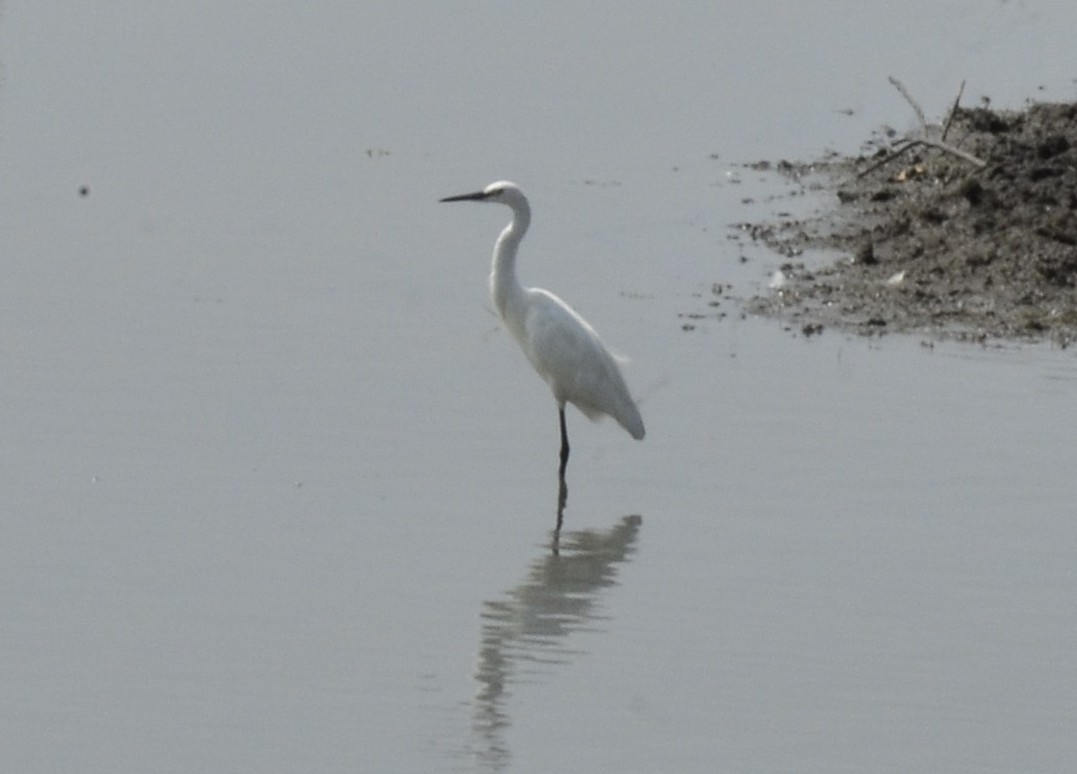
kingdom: Animalia
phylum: Chordata
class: Aves
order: Pelecaniformes
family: Ardeidae
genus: Egretta
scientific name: Egretta garzetta
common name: Little egret
